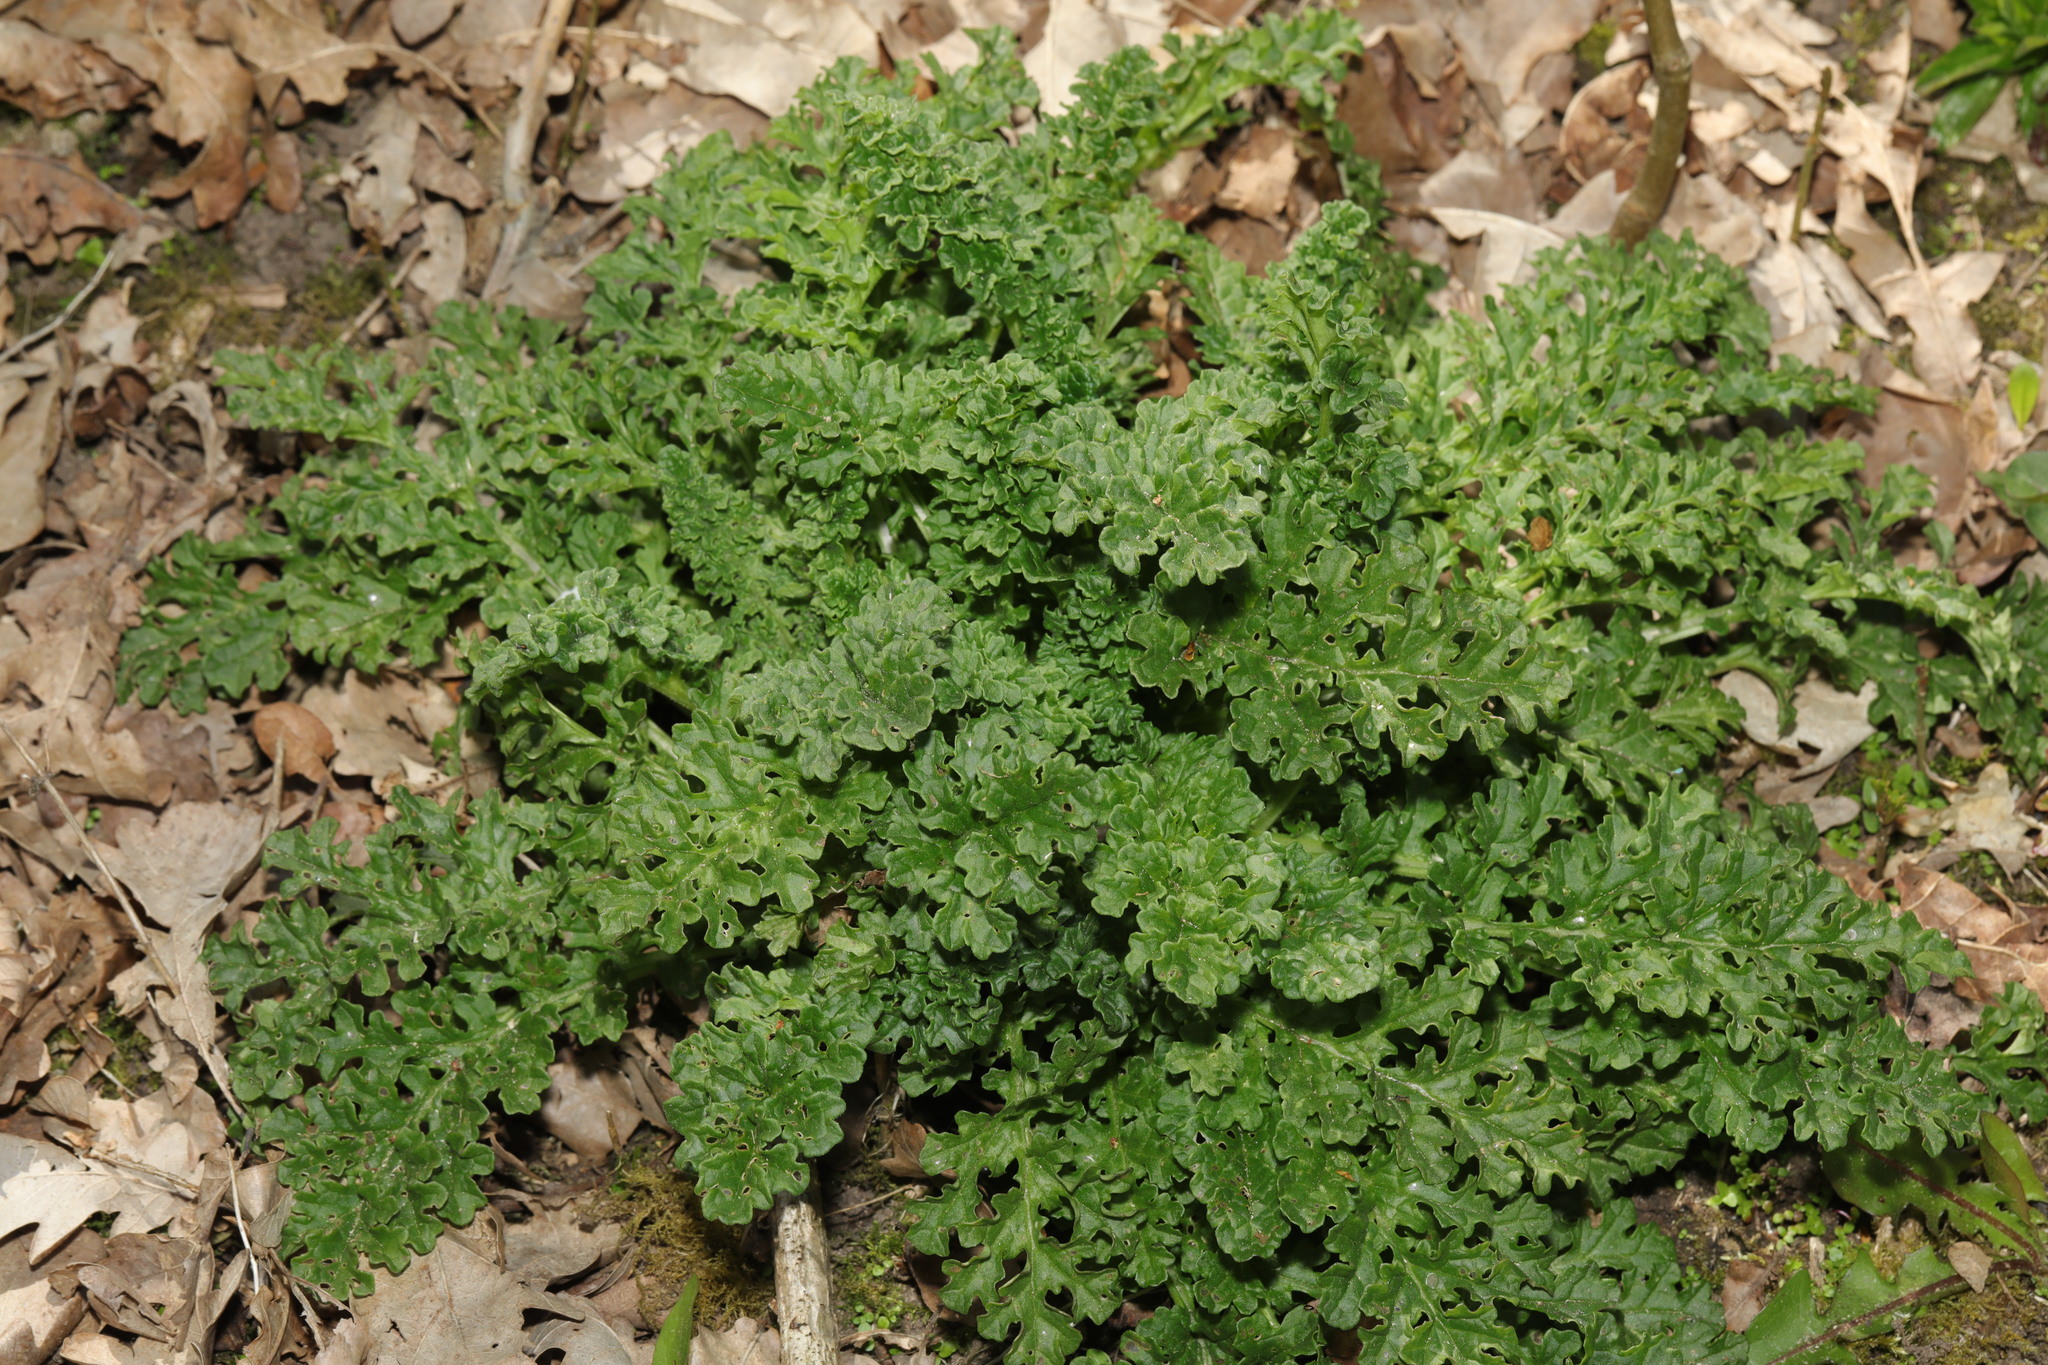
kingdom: Plantae
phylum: Tracheophyta
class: Magnoliopsida
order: Asterales
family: Asteraceae
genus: Jacobaea
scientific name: Jacobaea vulgaris
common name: Stinking willie
